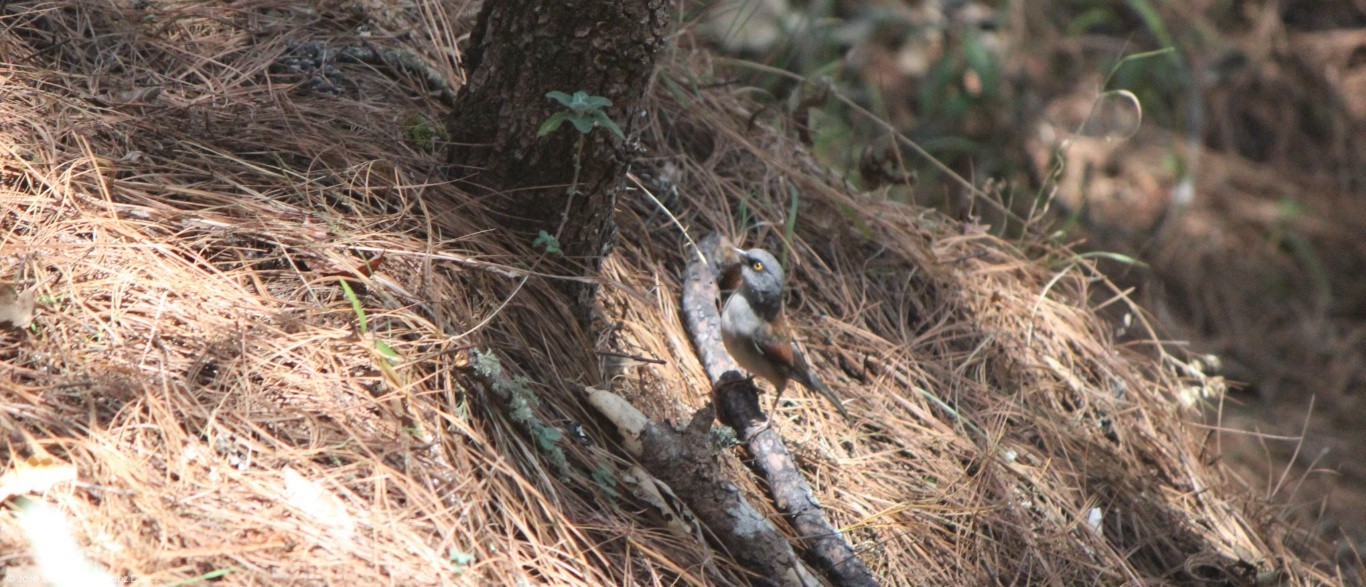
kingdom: Animalia
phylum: Chordata
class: Aves
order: Passeriformes
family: Passerellidae
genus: Junco
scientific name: Junco phaeonotus
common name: Yellow-eyed junco
